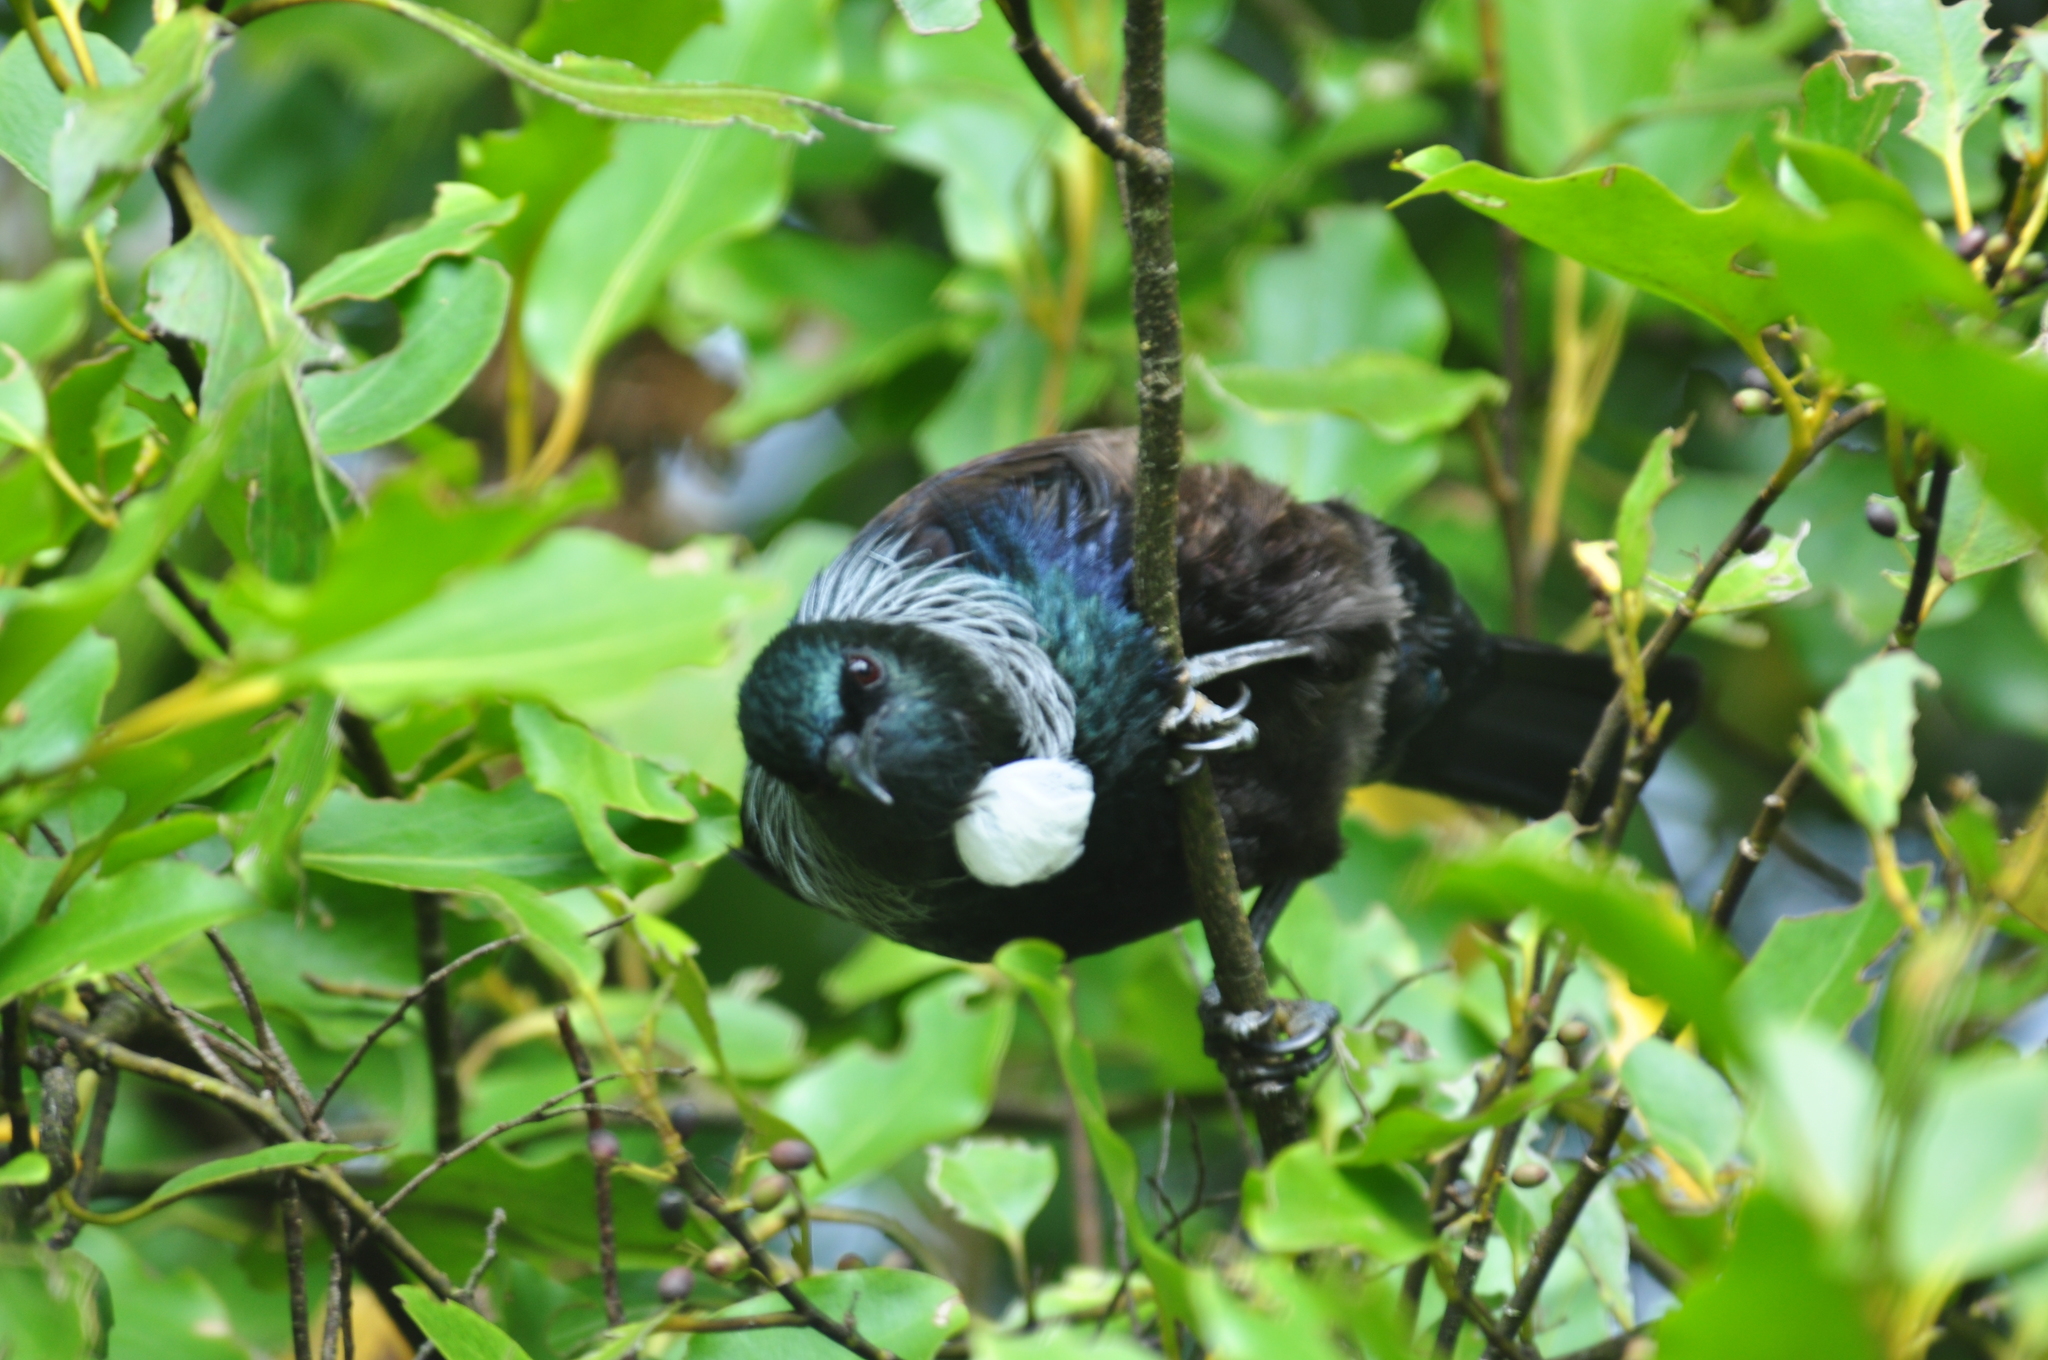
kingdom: Animalia
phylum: Chordata
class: Aves
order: Passeriformes
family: Meliphagidae
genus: Prosthemadera
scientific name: Prosthemadera novaeseelandiae
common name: Tui
